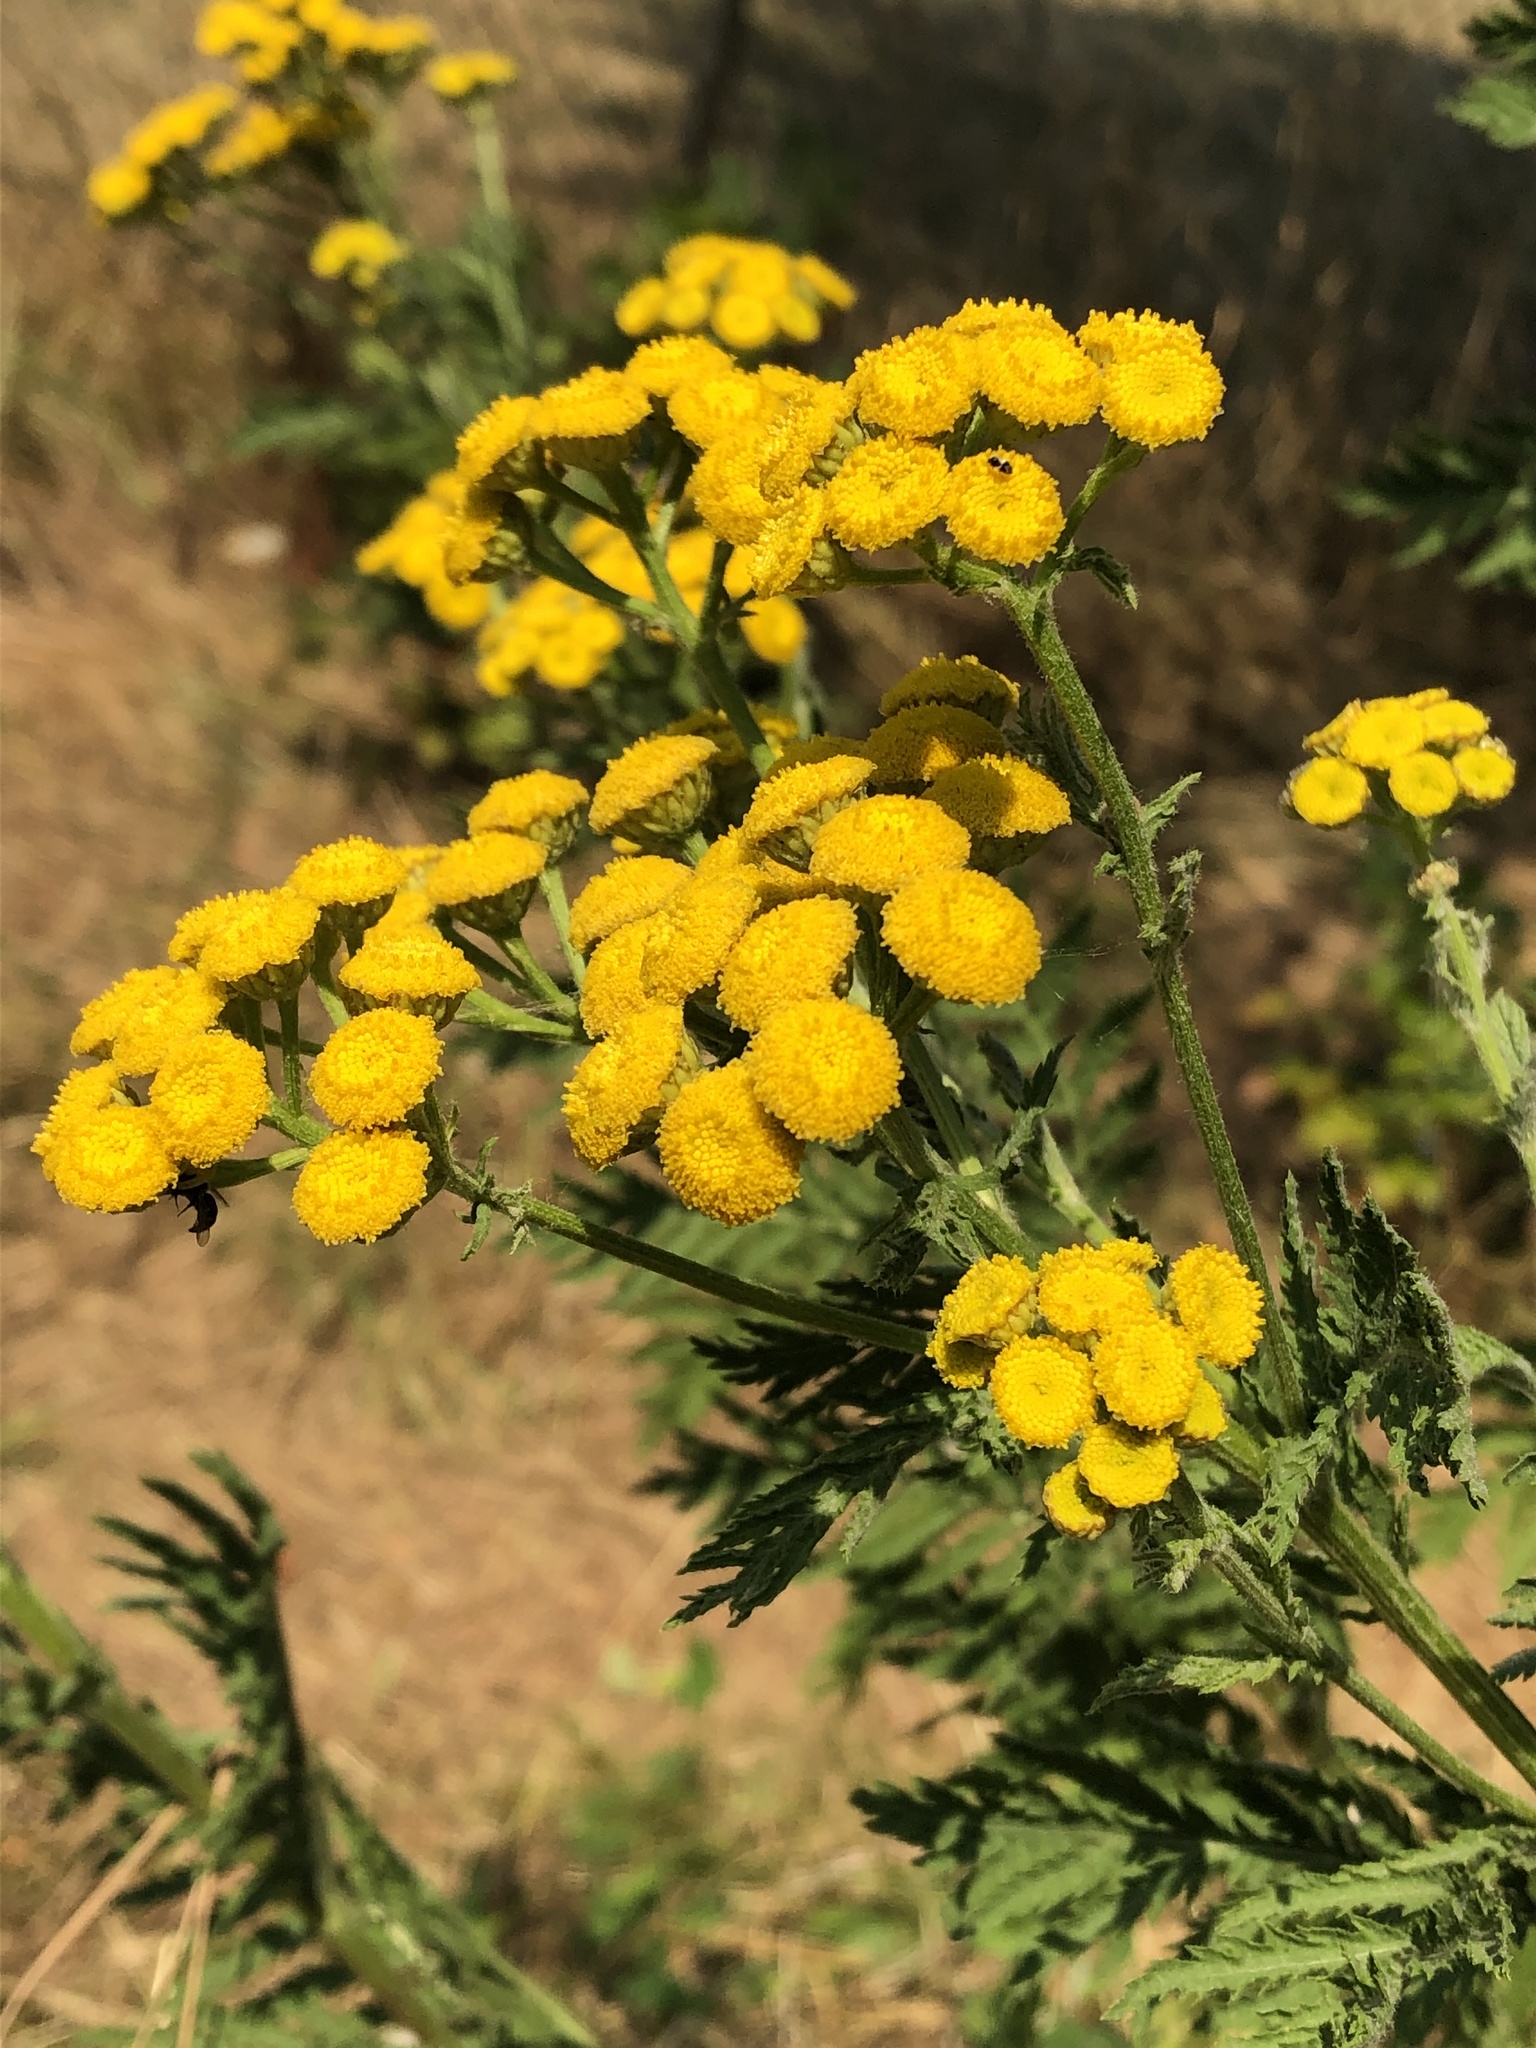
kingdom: Plantae
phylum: Tracheophyta
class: Magnoliopsida
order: Asterales
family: Asteraceae
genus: Tanacetum
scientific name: Tanacetum vulgare
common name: Common tansy
